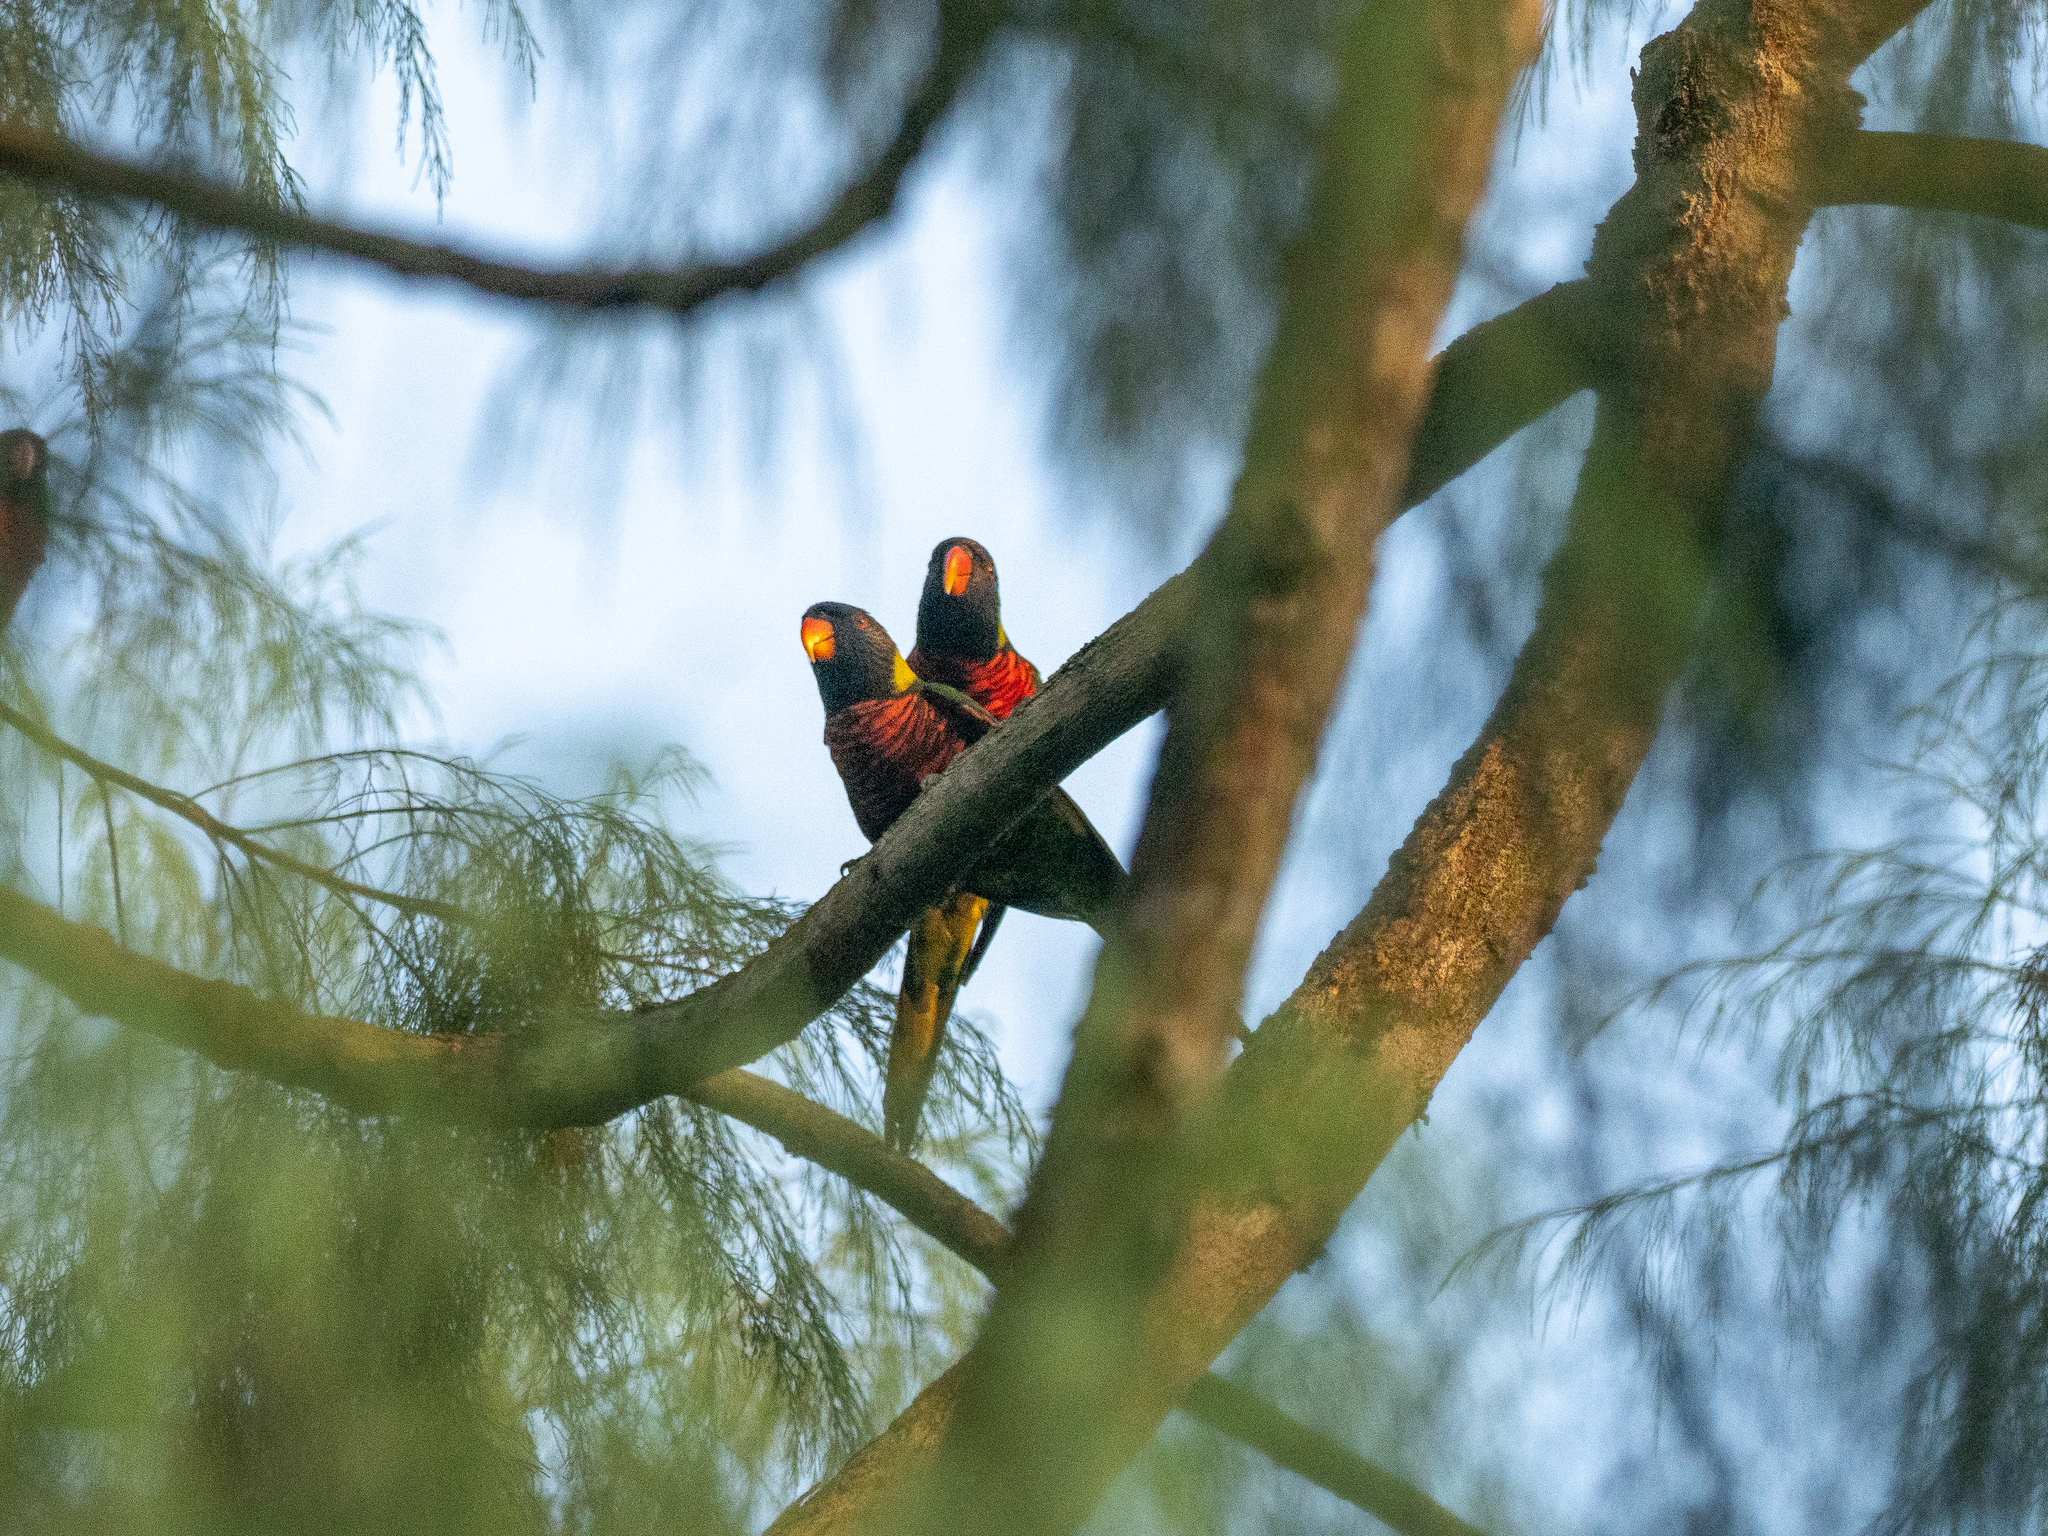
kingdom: Animalia
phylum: Chordata
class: Aves
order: Psittaciformes
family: Psittacidae
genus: Trichoglossus
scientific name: Trichoglossus haematodus
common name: Coconut lorikeet
